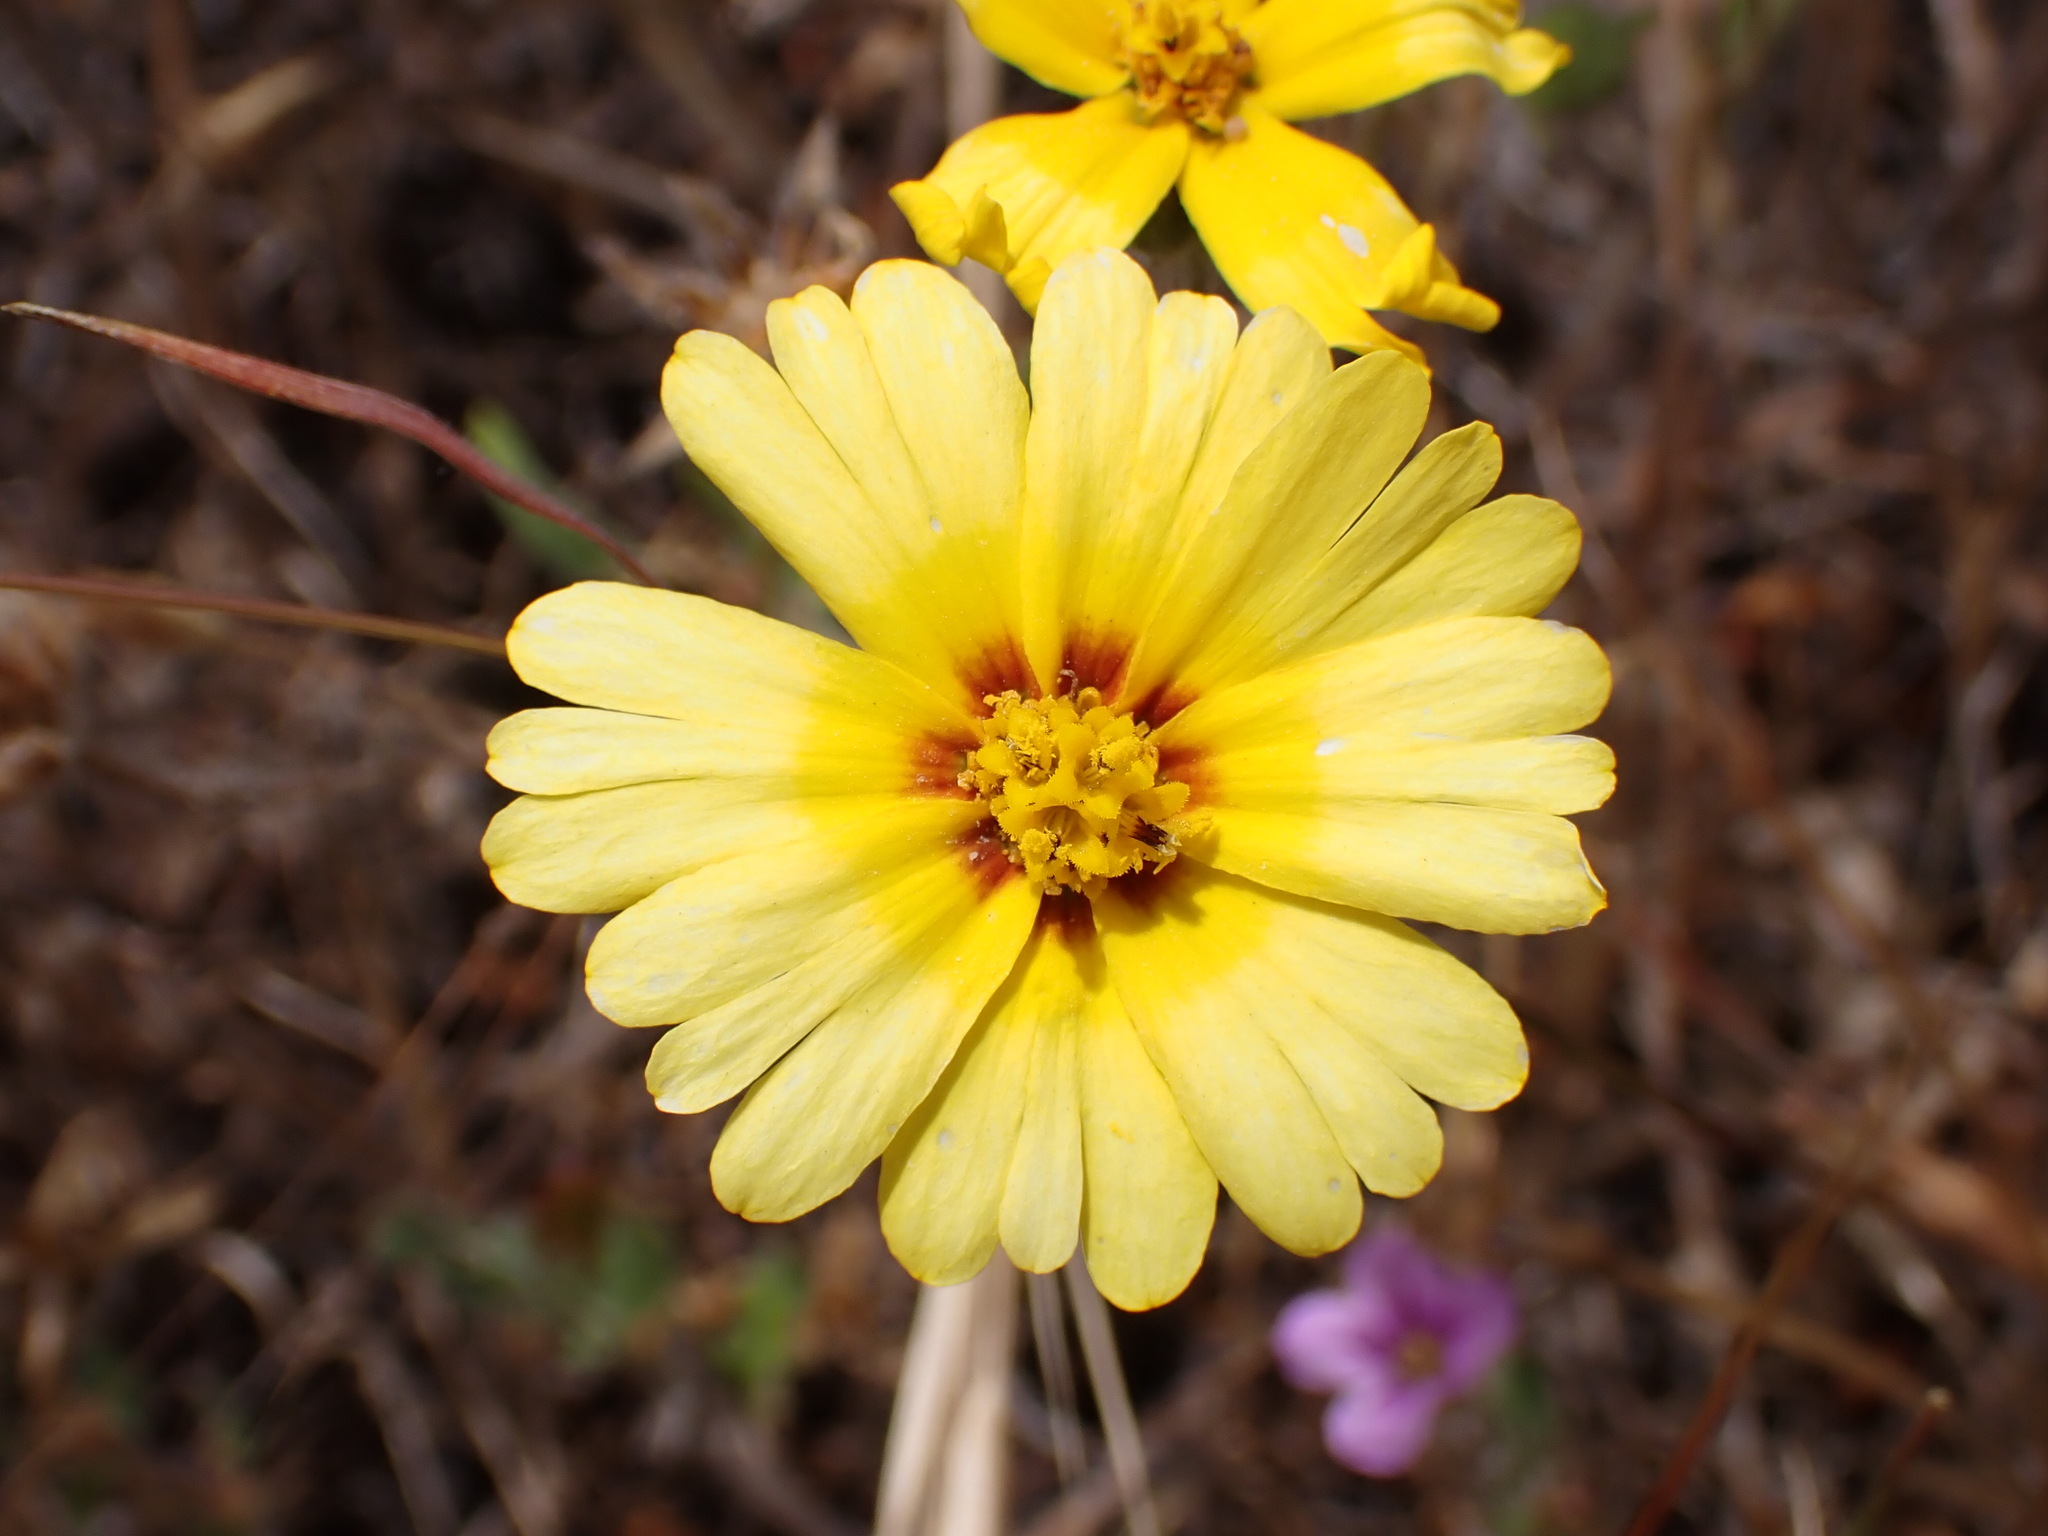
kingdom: Plantae
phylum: Tracheophyta
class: Magnoliopsida
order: Asterales
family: Asteraceae
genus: Madia
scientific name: Madia elegans
